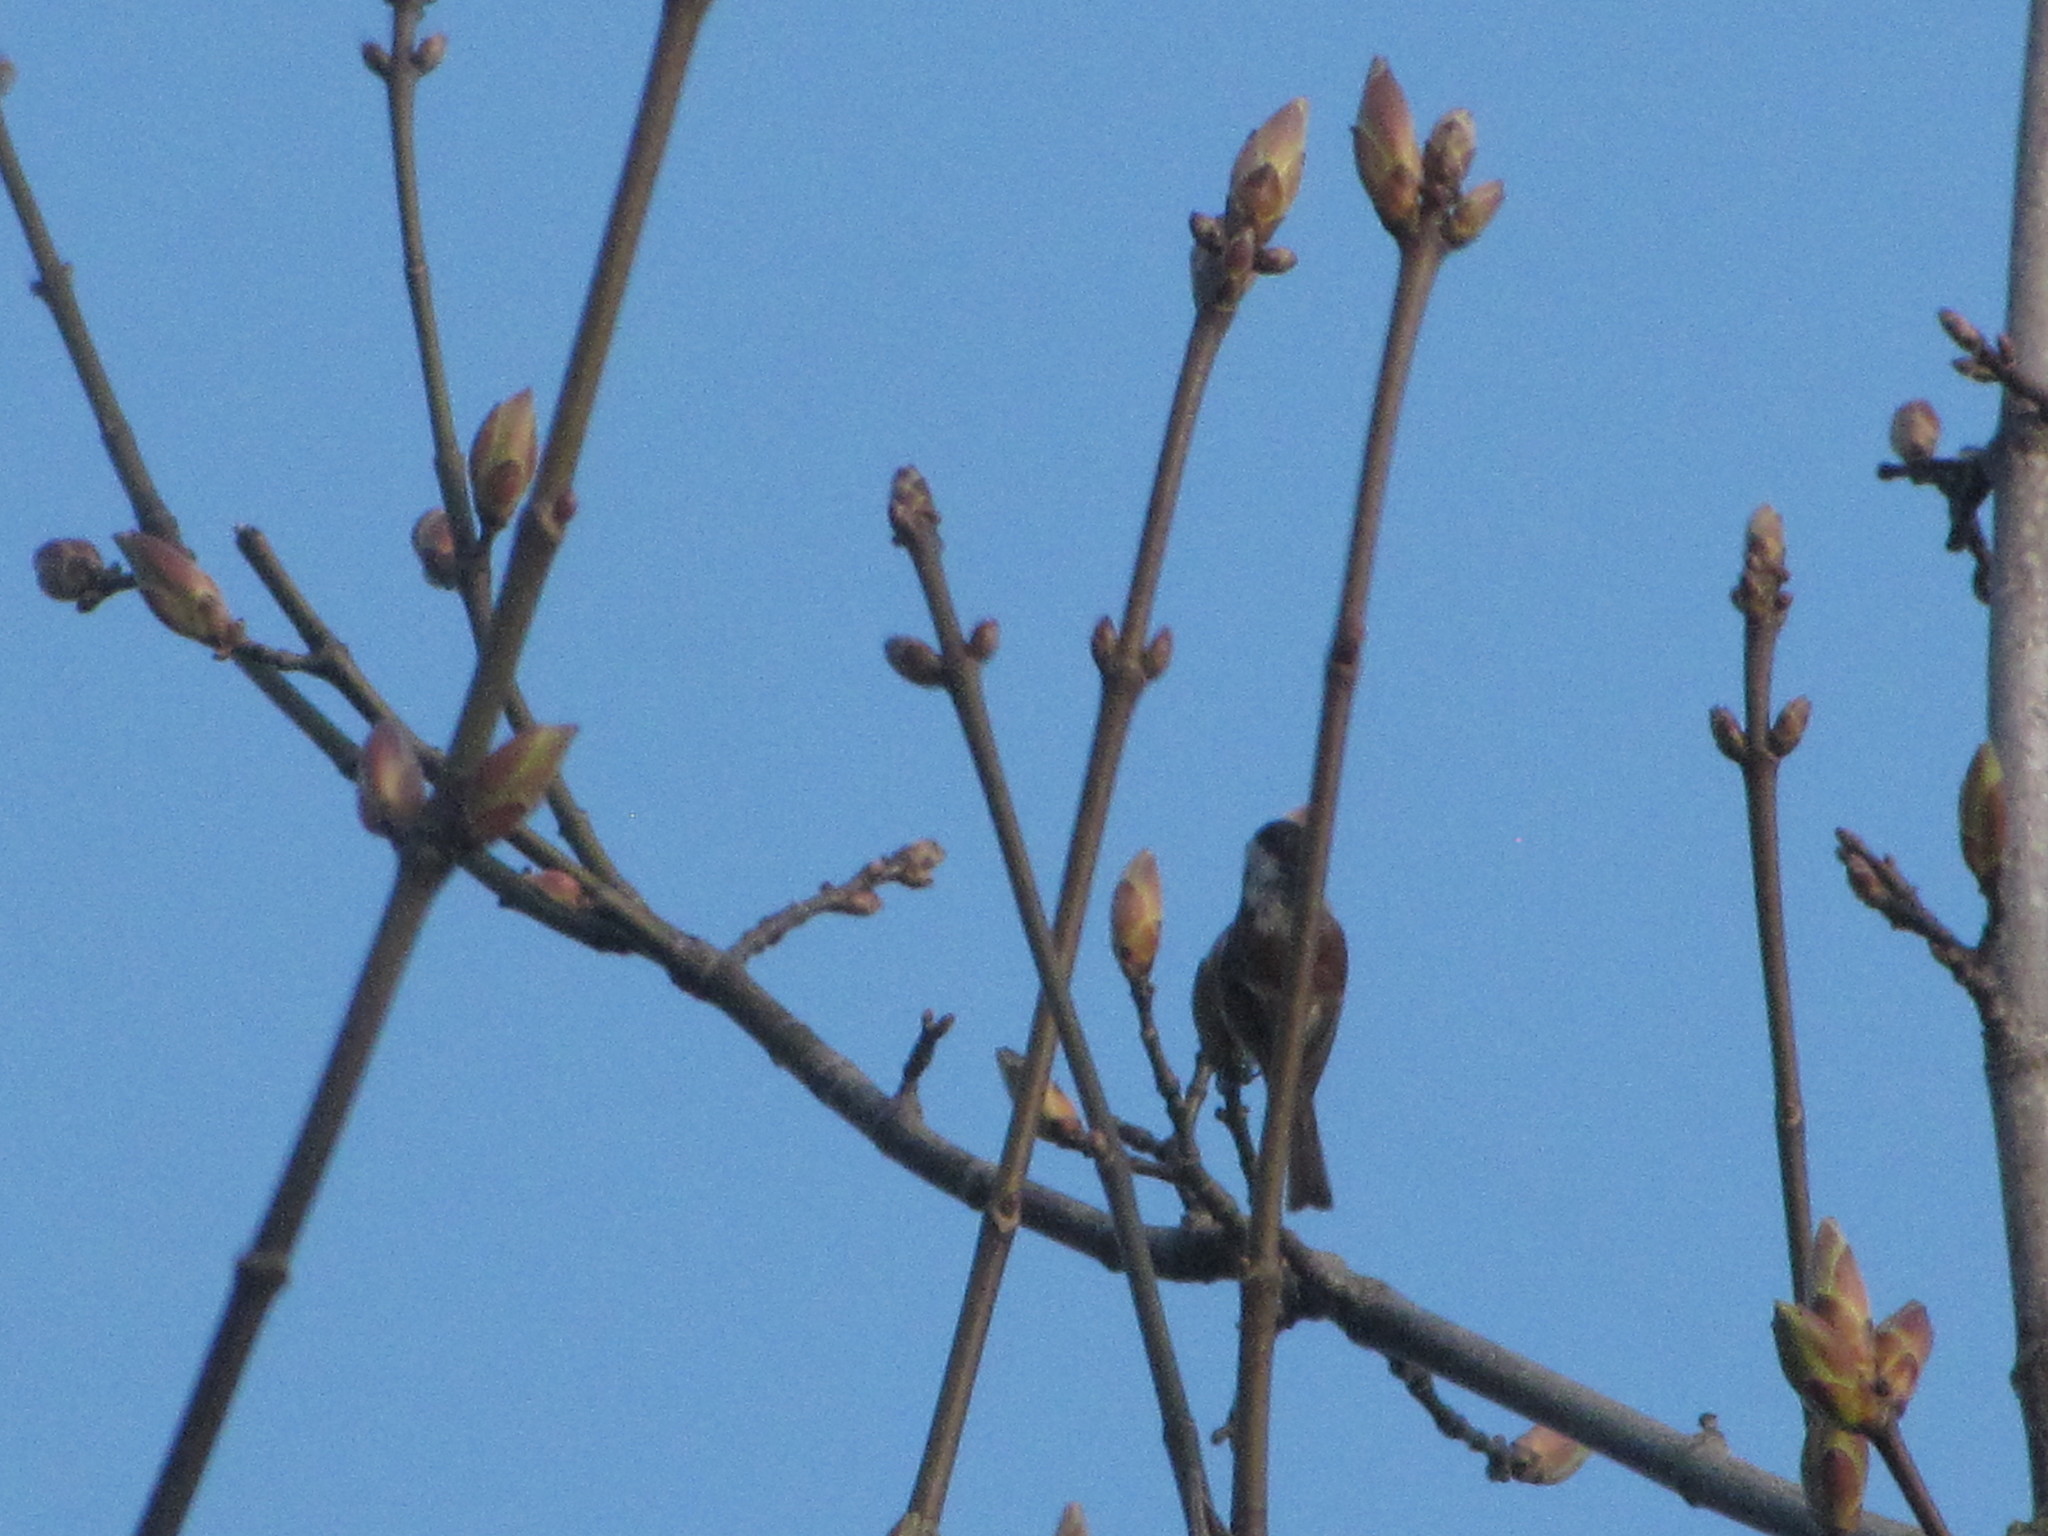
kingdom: Animalia
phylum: Chordata
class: Aves
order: Passeriformes
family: Paridae
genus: Poecile
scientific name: Poecile rufescens
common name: Chestnut-backed chickadee
